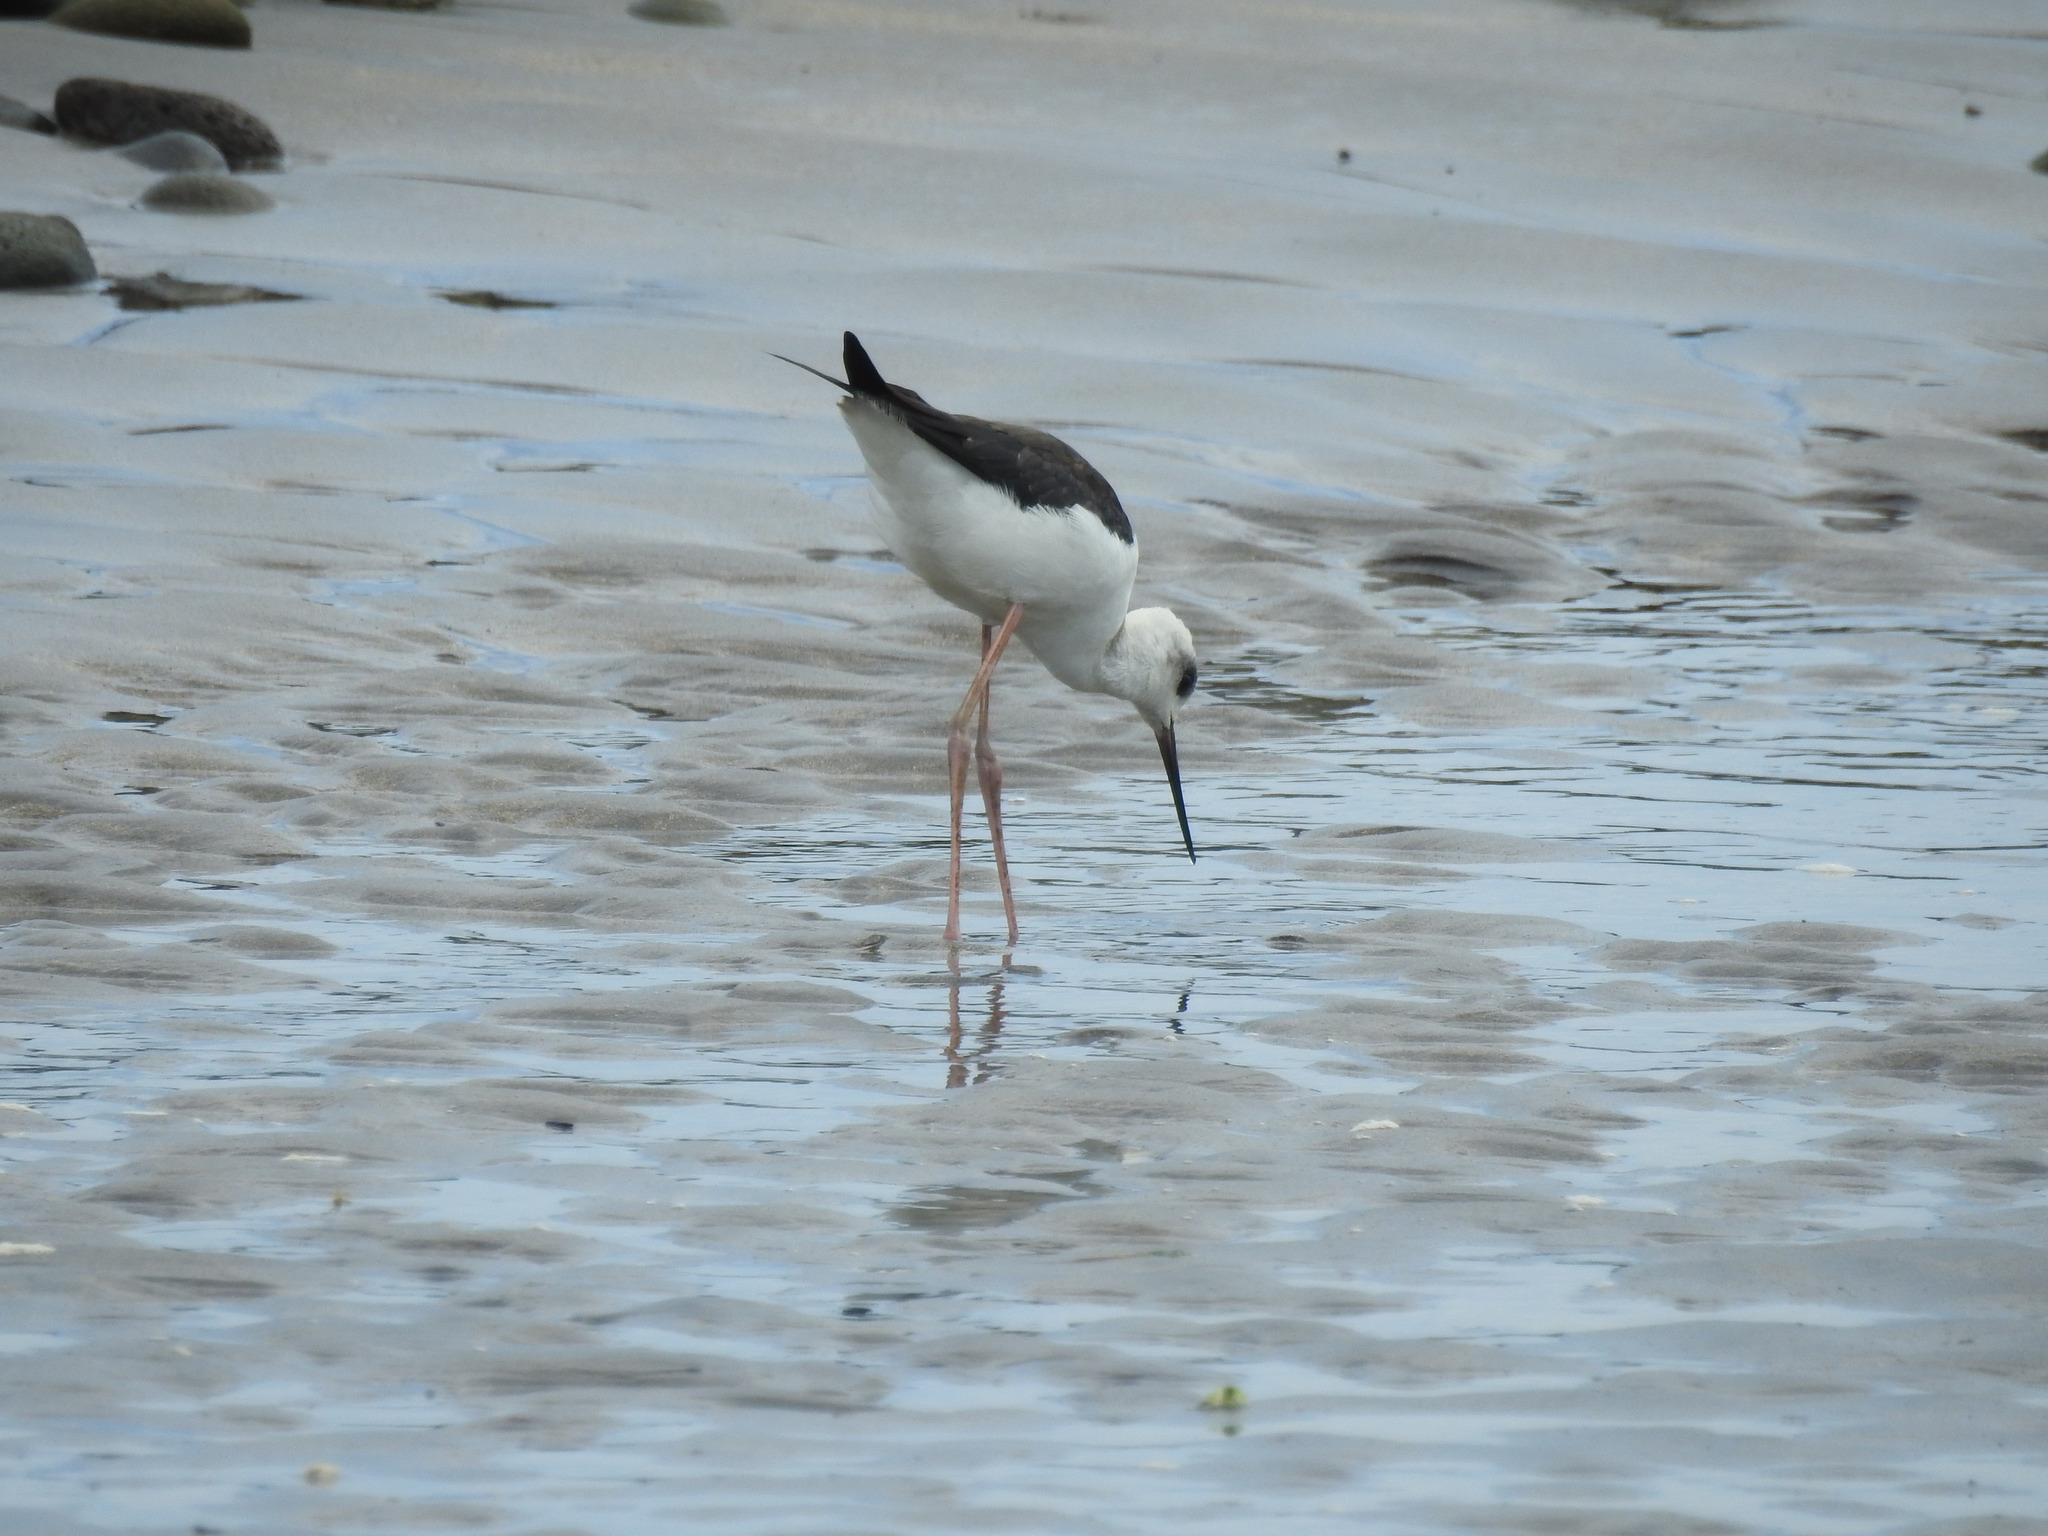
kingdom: Animalia
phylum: Chordata
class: Aves
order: Charadriiformes
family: Recurvirostridae
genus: Himantopus
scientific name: Himantopus leucocephalus
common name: White-headed stilt
